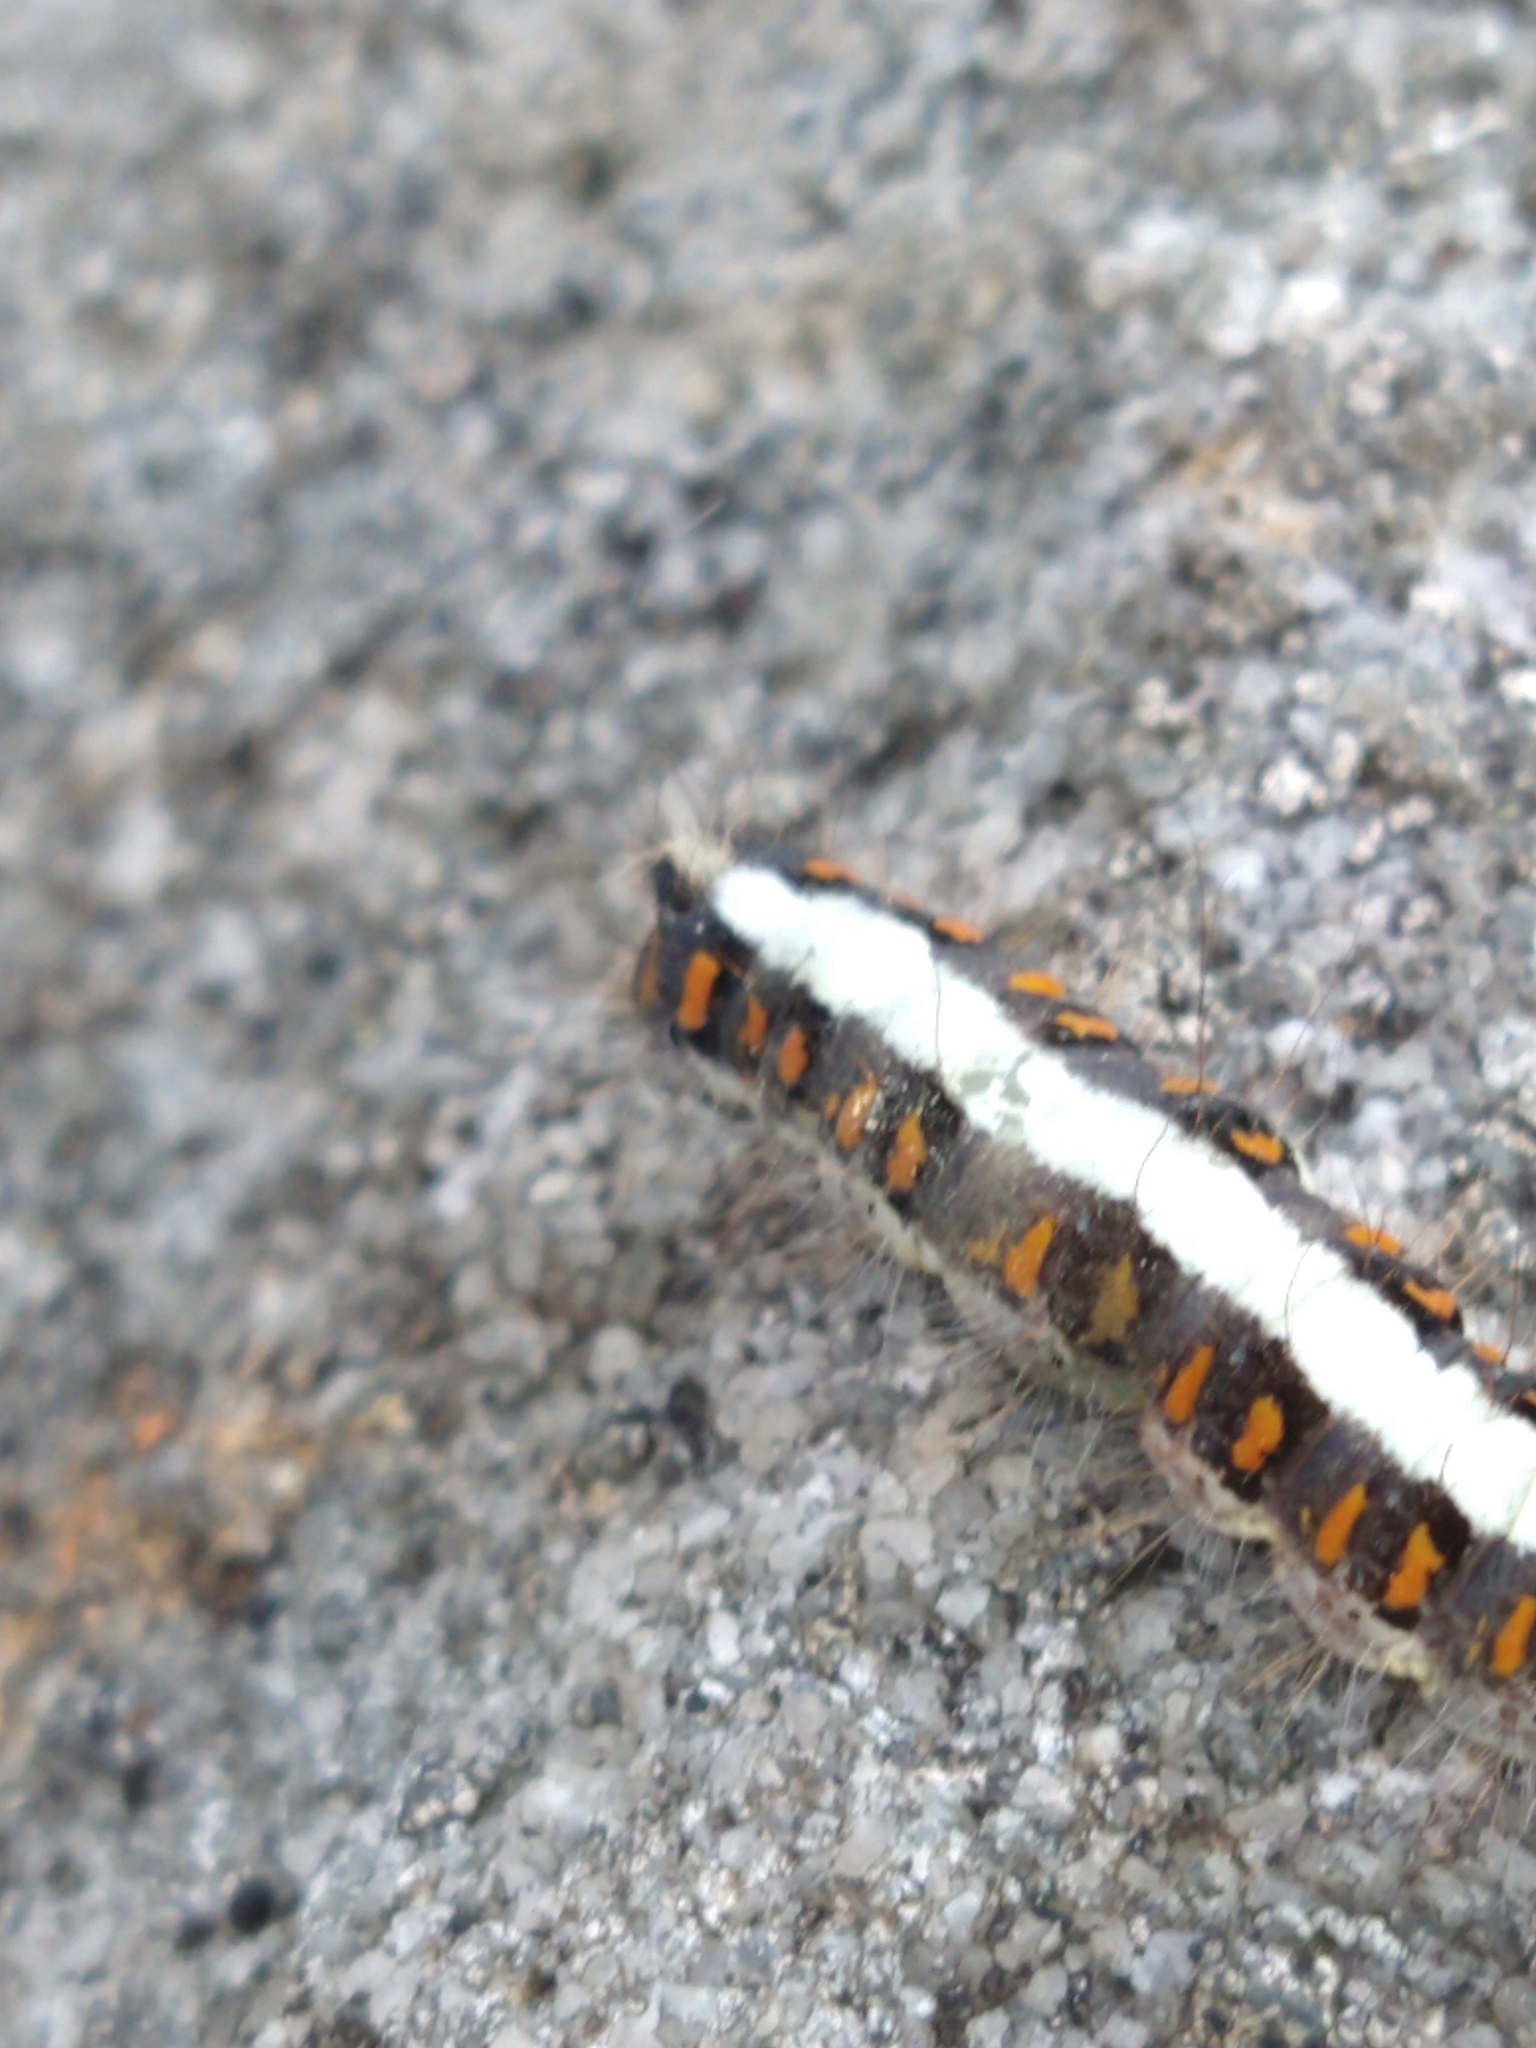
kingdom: Animalia
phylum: Arthropoda
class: Insecta
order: Lepidoptera
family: Noctuidae
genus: Acronicta
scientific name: Acronicta psi
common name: Grey dagger
